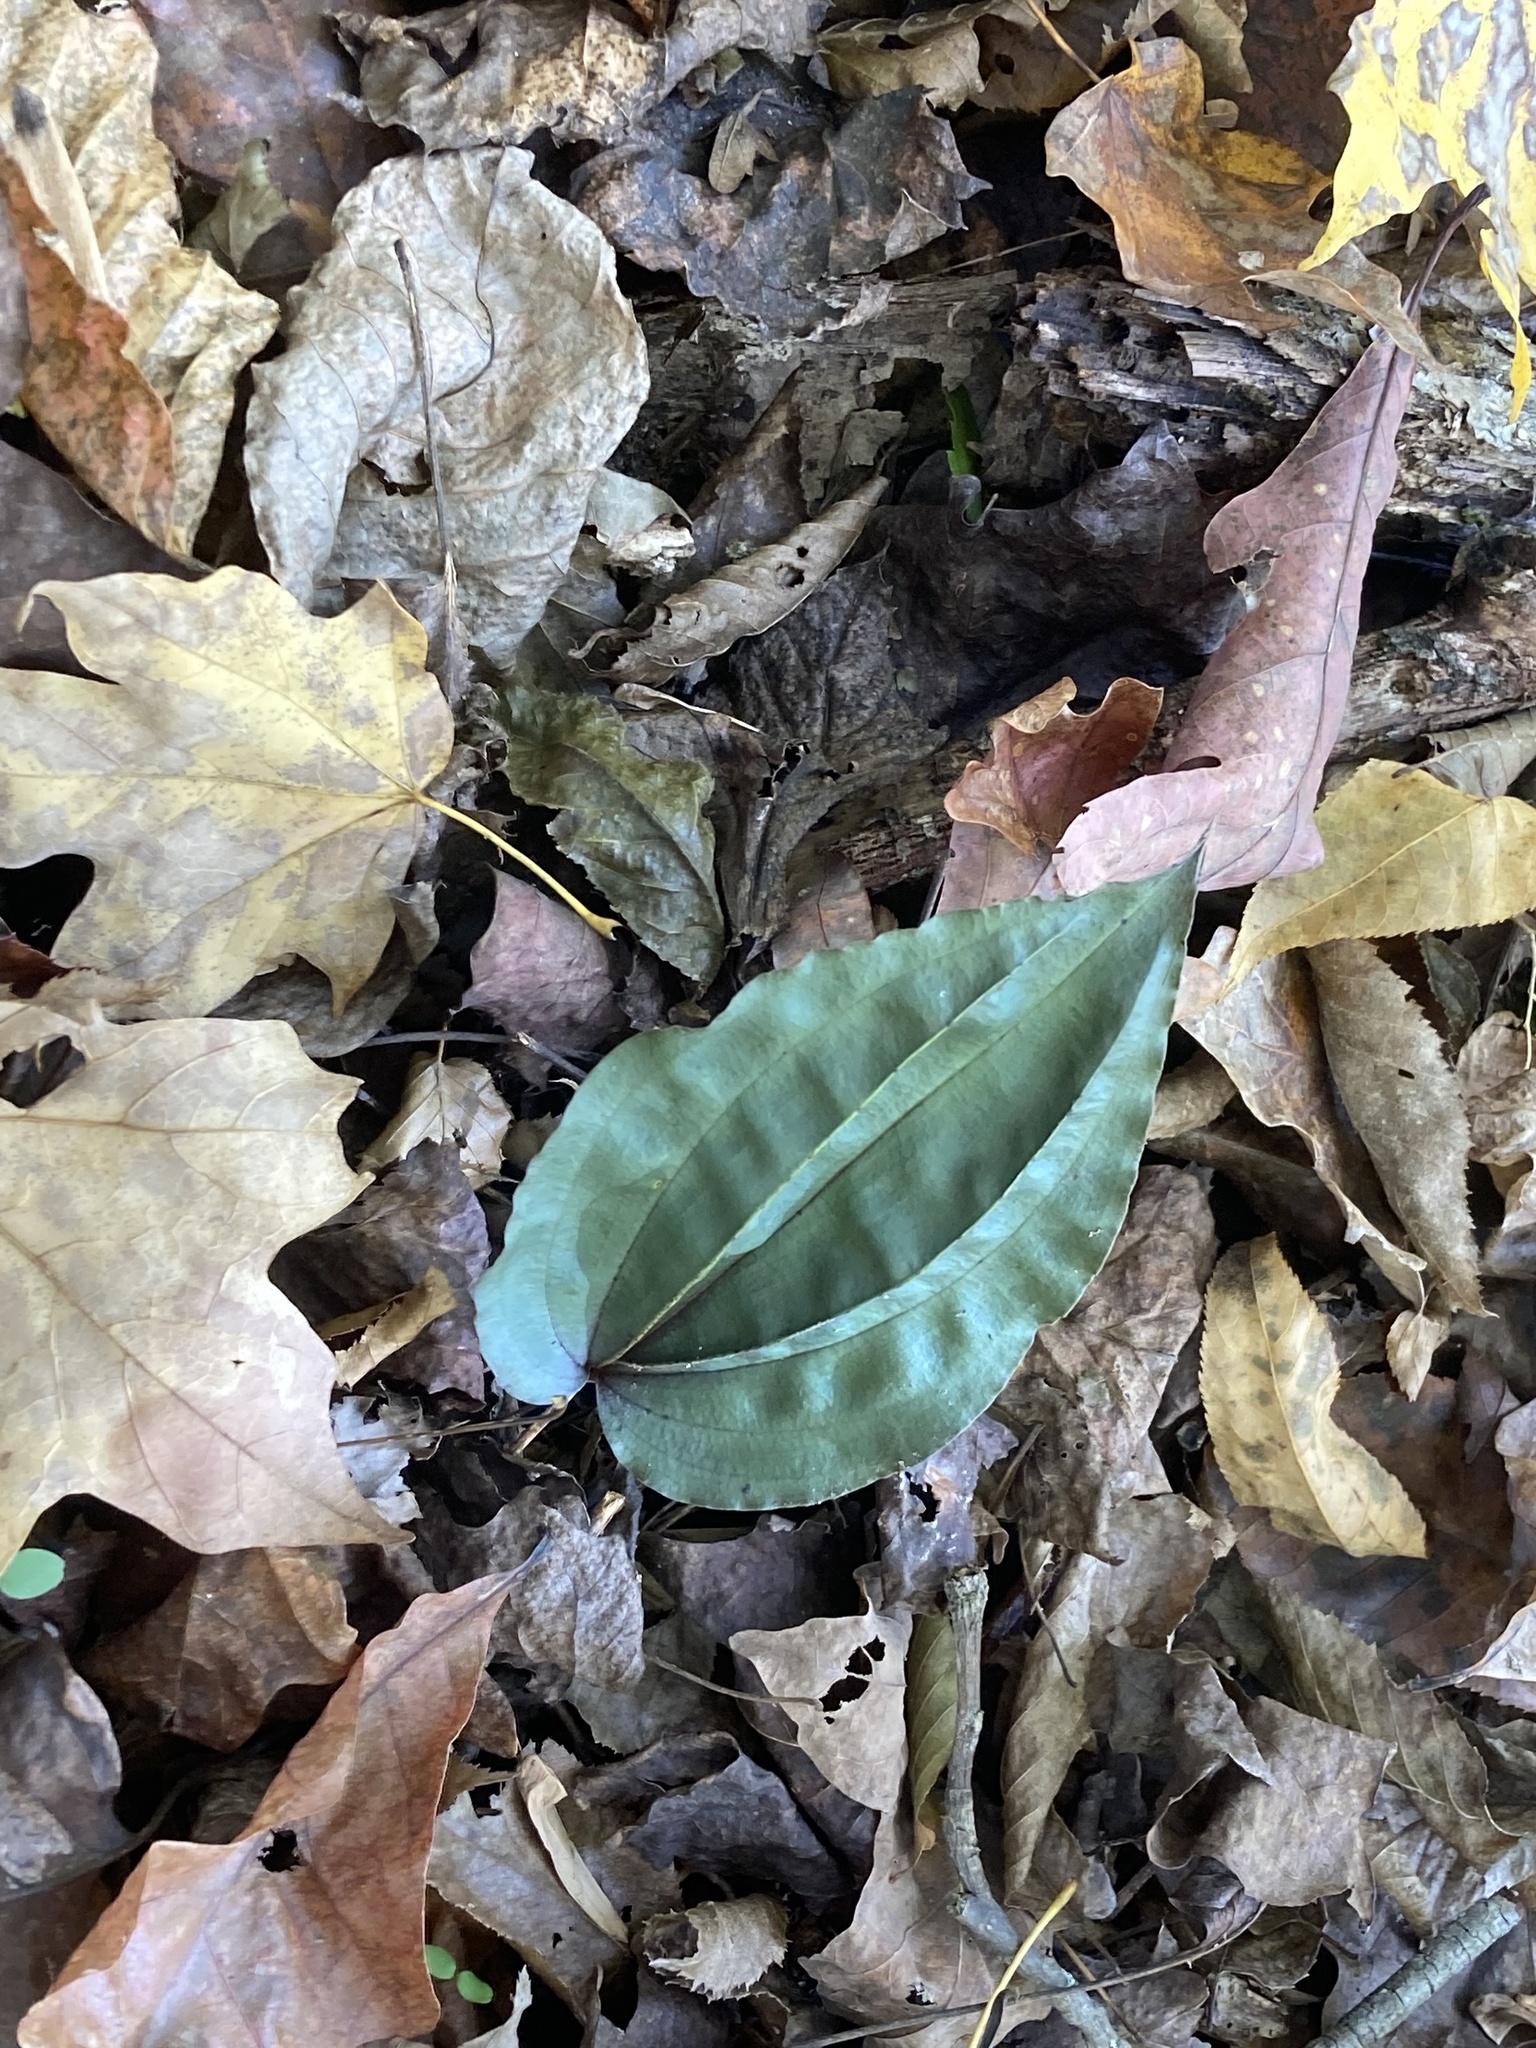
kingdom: Plantae
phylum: Tracheophyta
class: Liliopsida
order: Asparagales
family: Orchidaceae
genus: Tipularia
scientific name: Tipularia discolor
